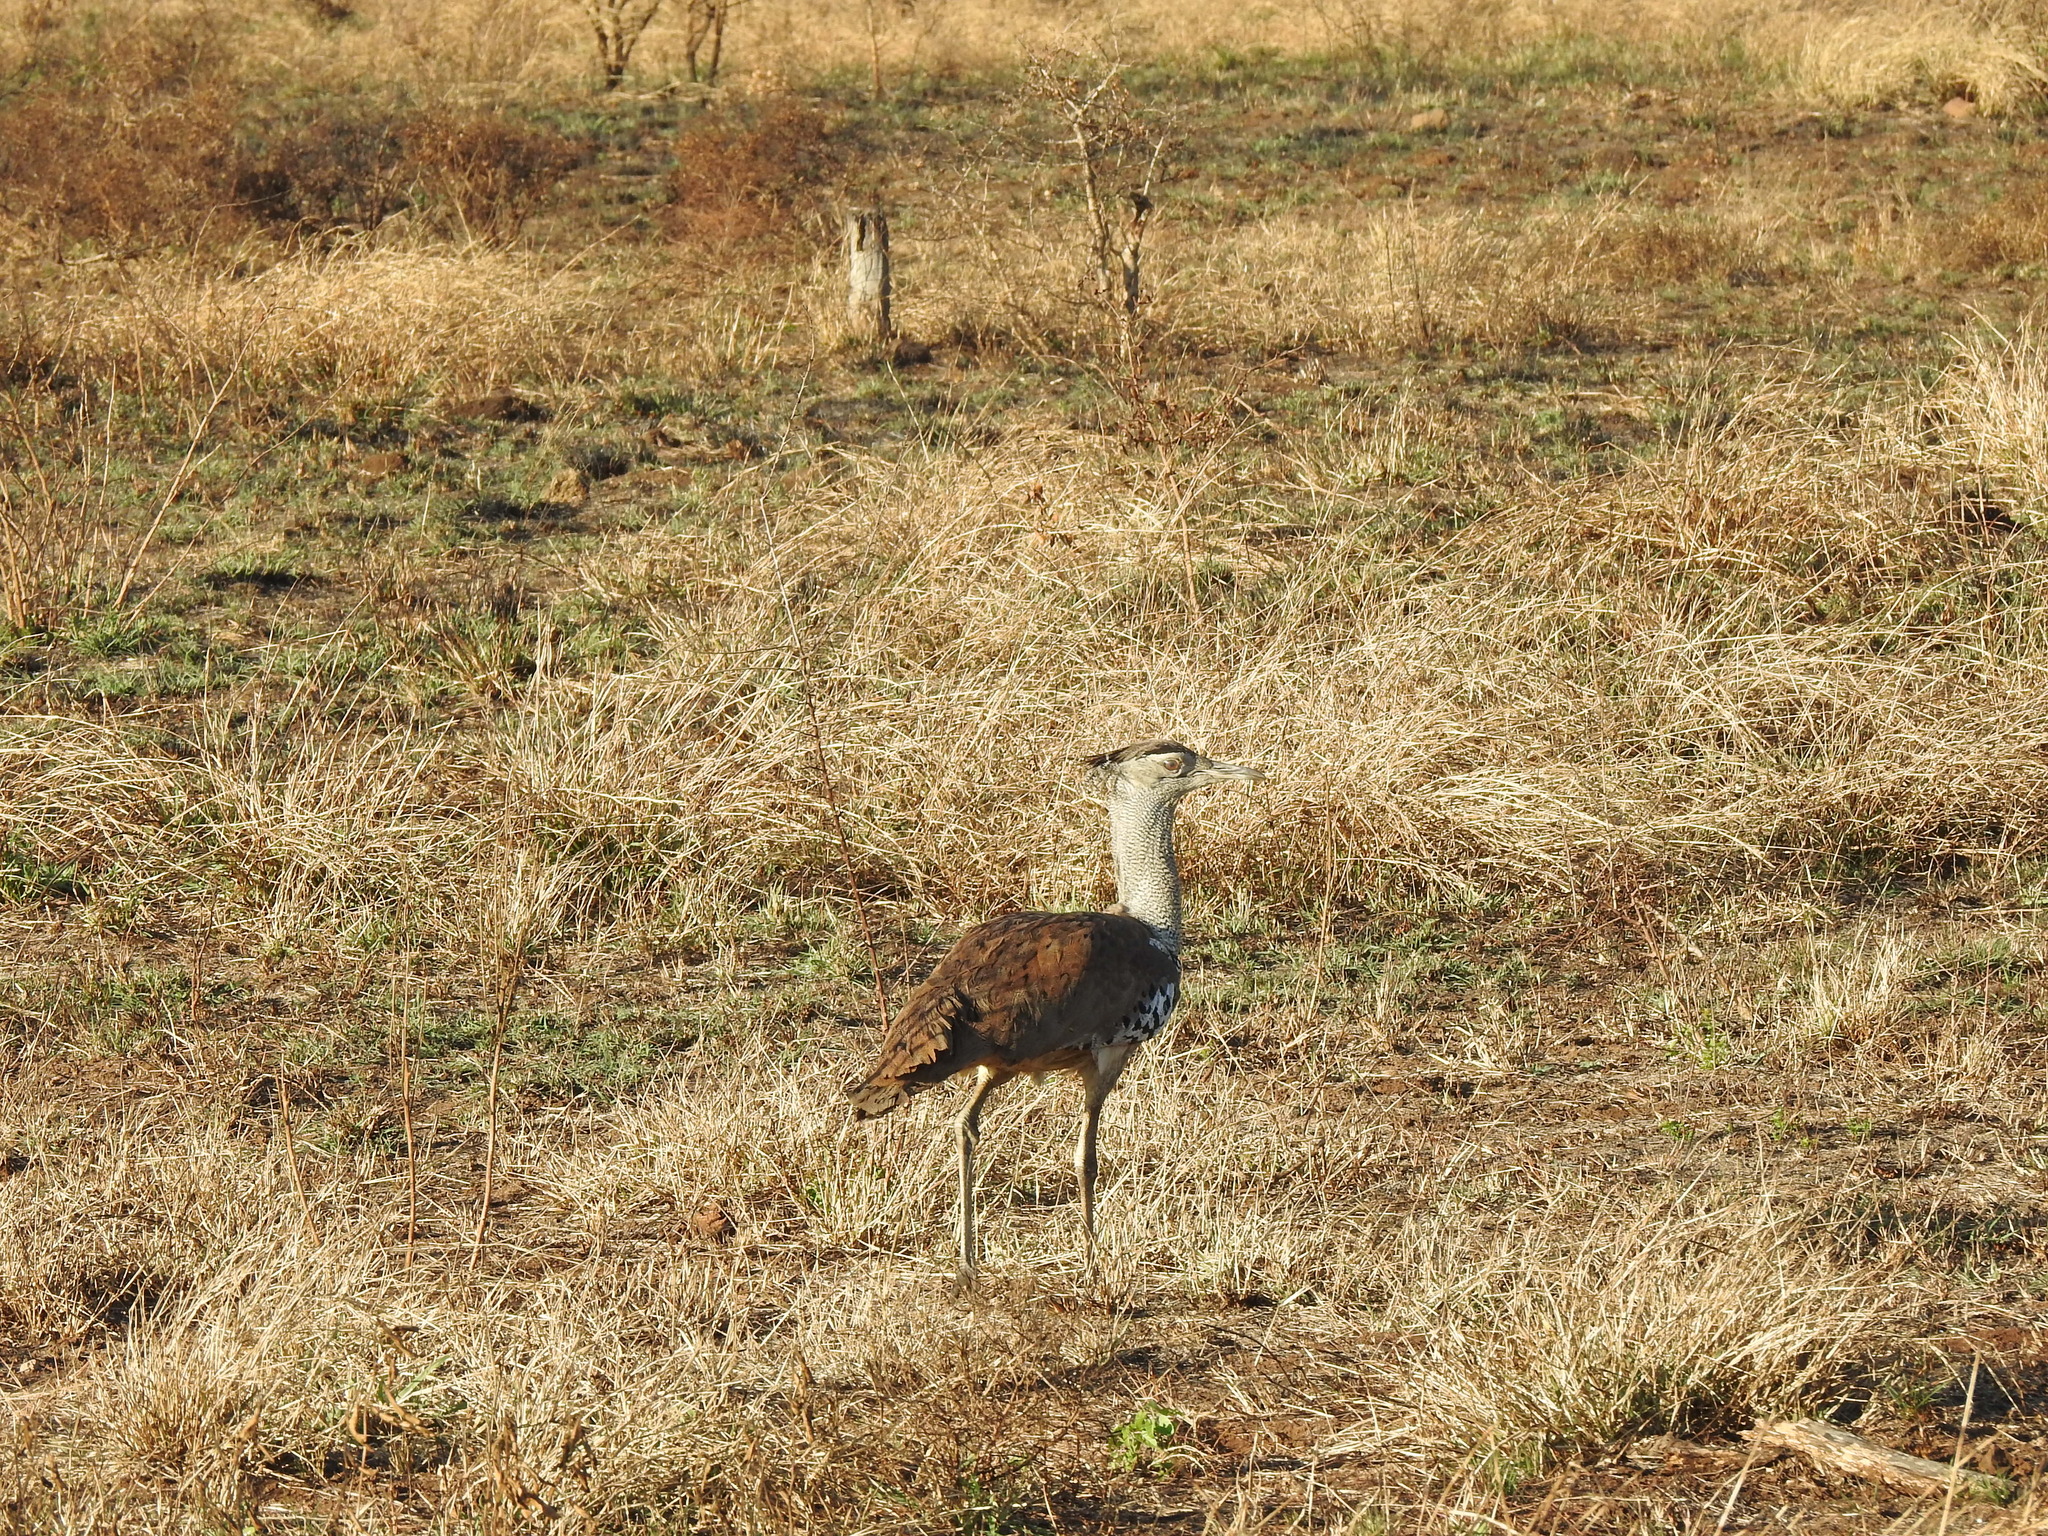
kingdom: Animalia
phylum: Chordata
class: Aves
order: Otidiformes
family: Otididae
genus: Ardeotis
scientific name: Ardeotis kori
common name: Kori bustard
